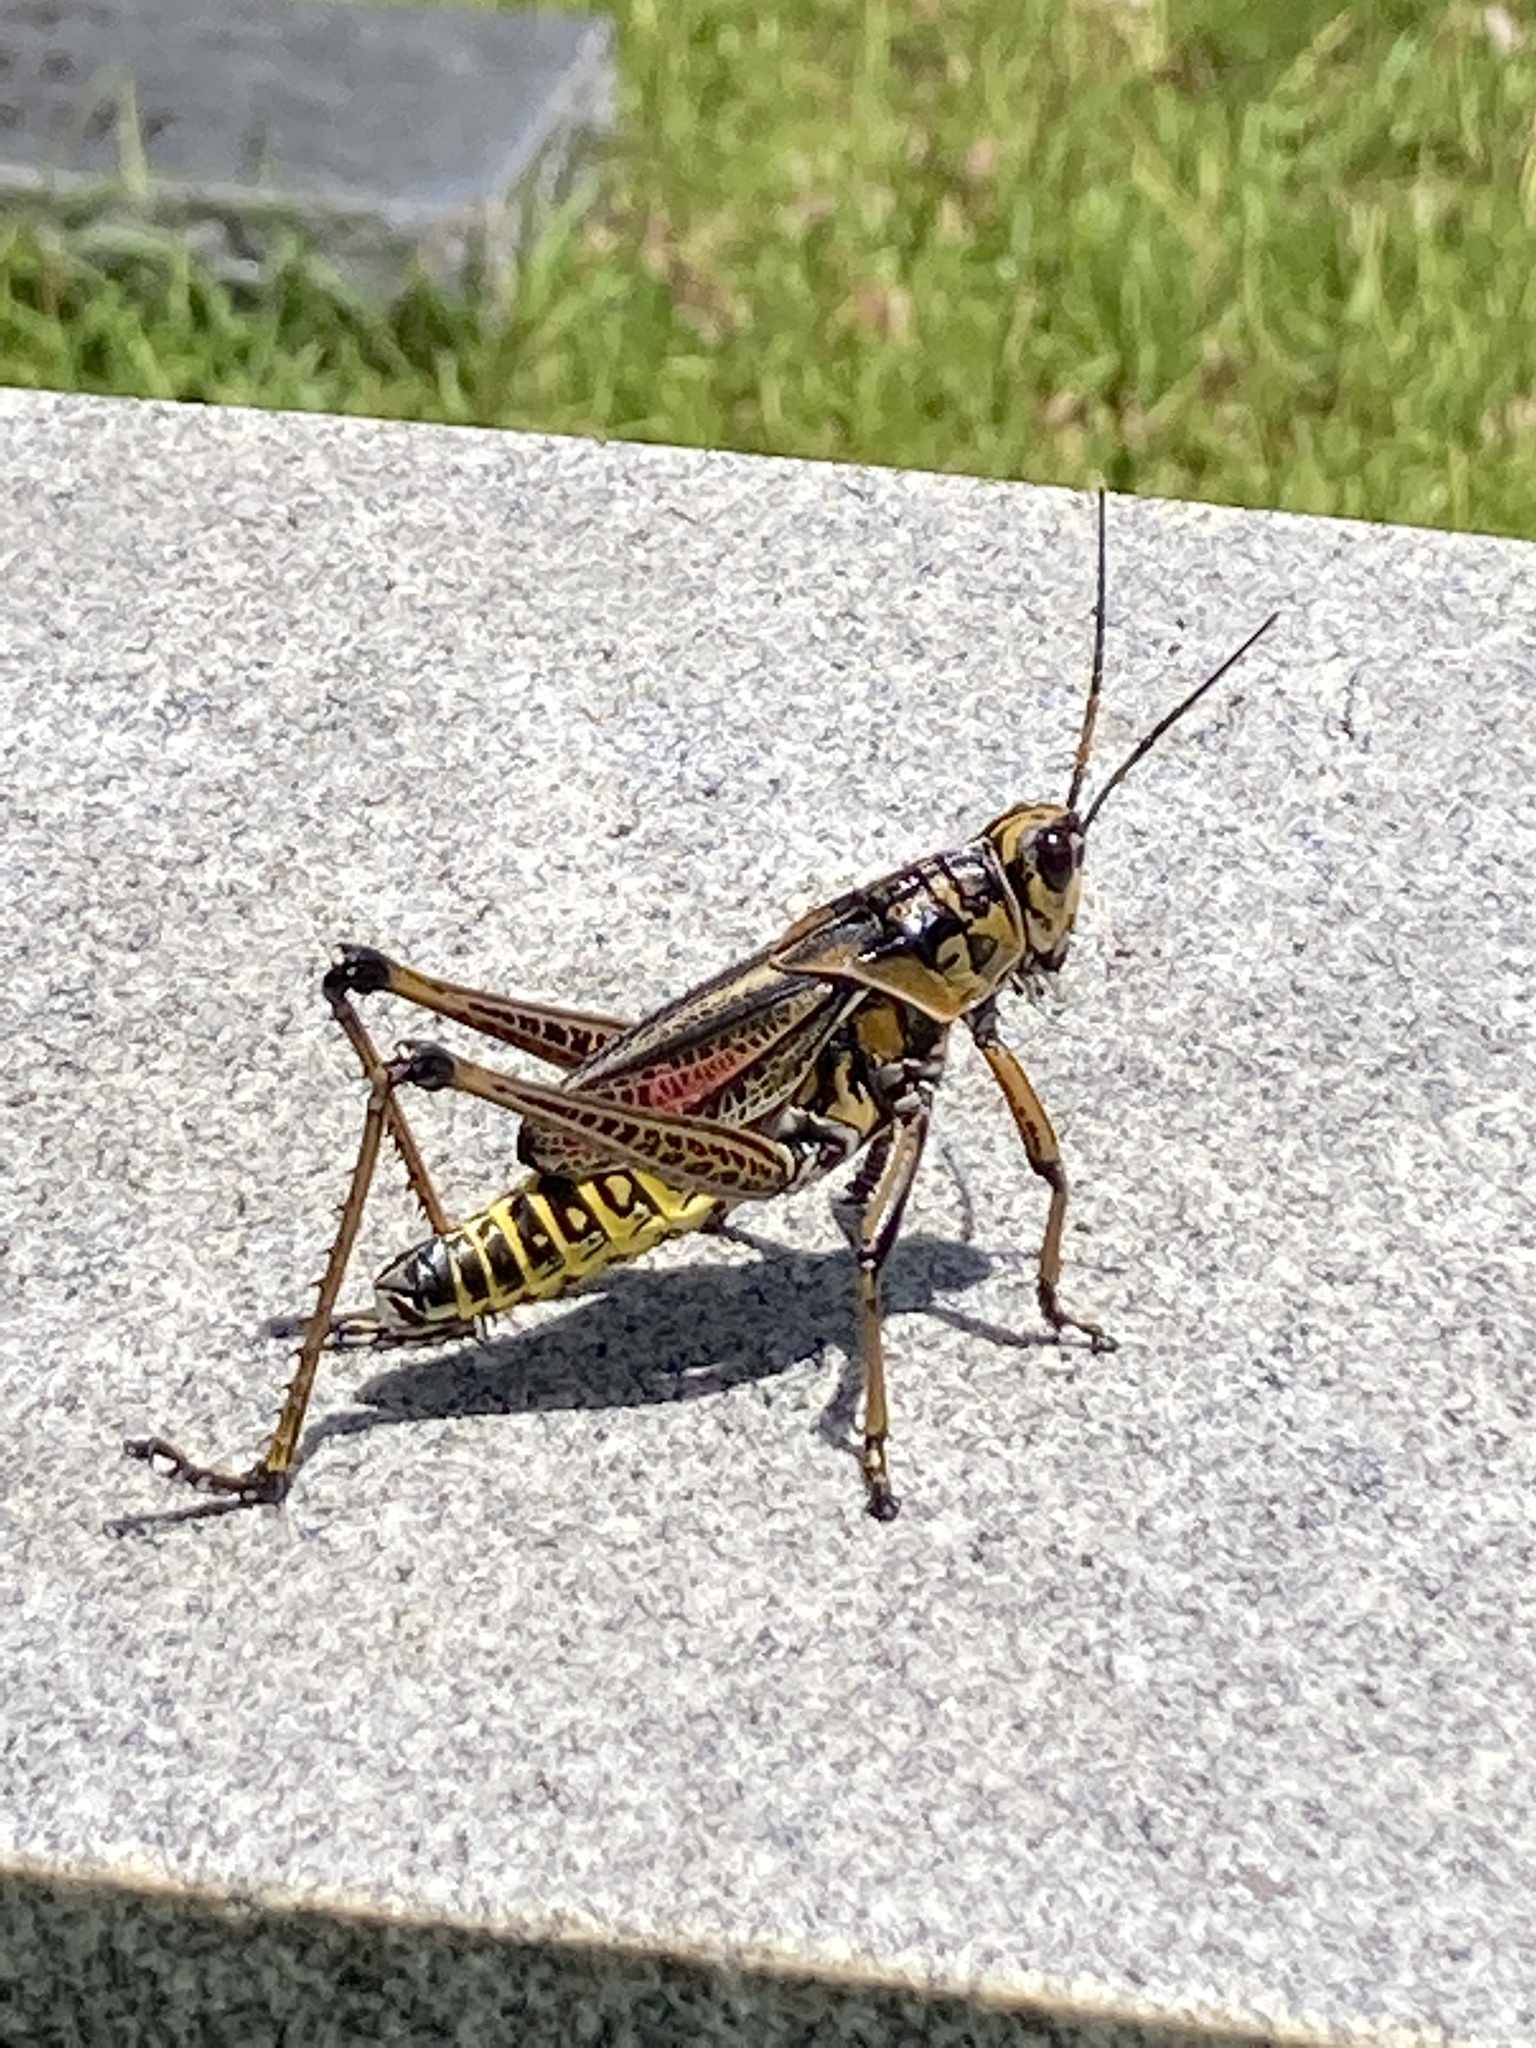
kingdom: Animalia
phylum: Arthropoda
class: Insecta
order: Orthoptera
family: Romaleidae
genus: Romalea
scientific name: Romalea microptera
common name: Eastern lubber grasshopper
